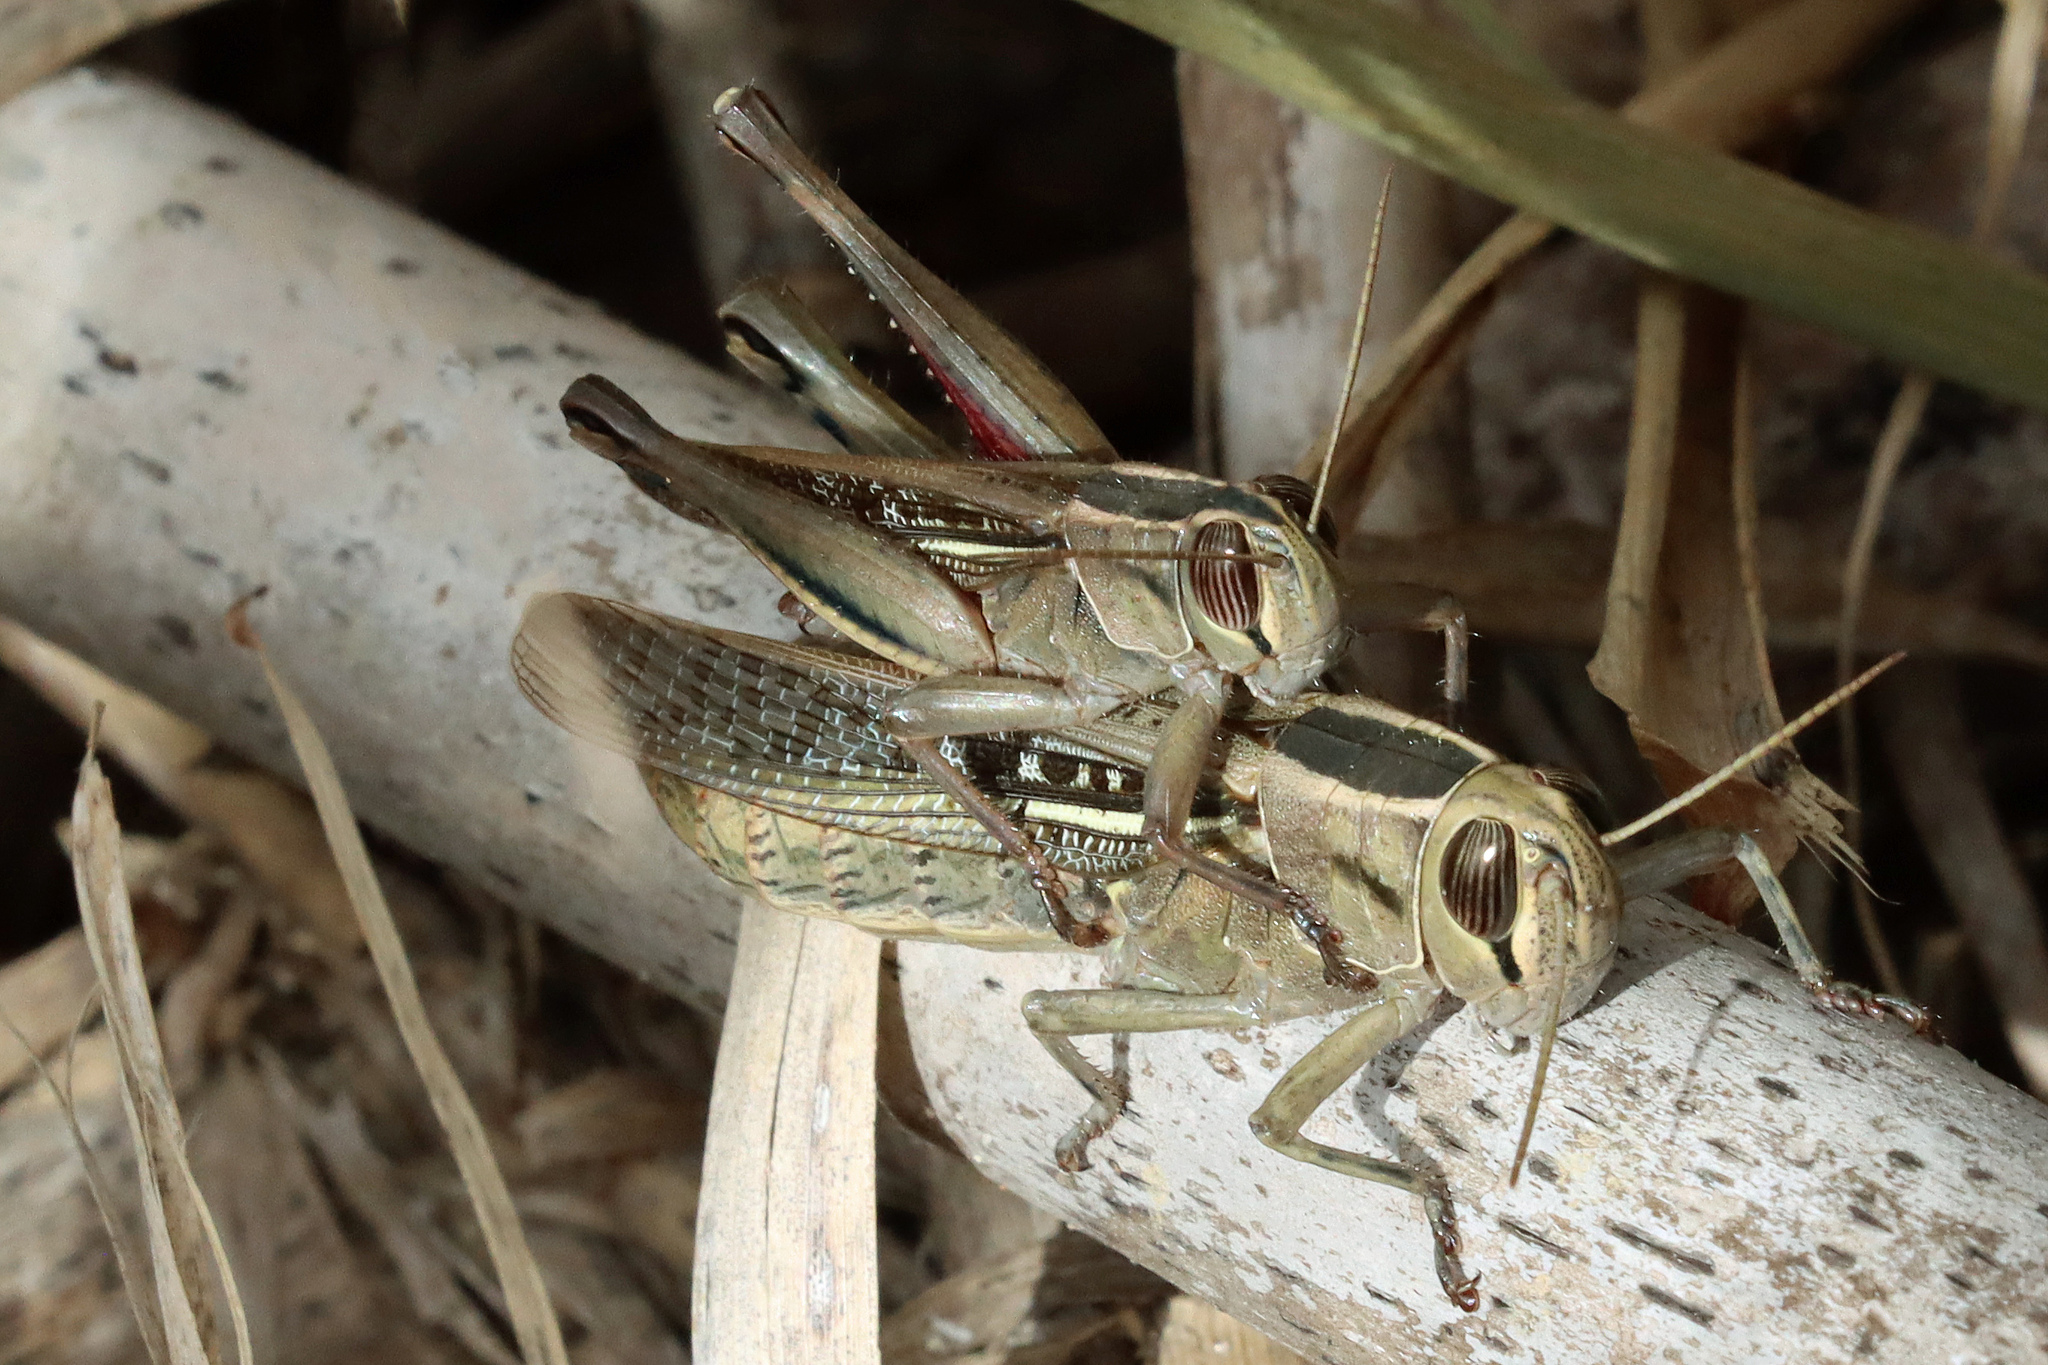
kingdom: Animalia
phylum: Arthropoda
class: Insecta
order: Orthoptera
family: Acrididae
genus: Eyprepocnemis
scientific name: Eyprepocnemis plorans
